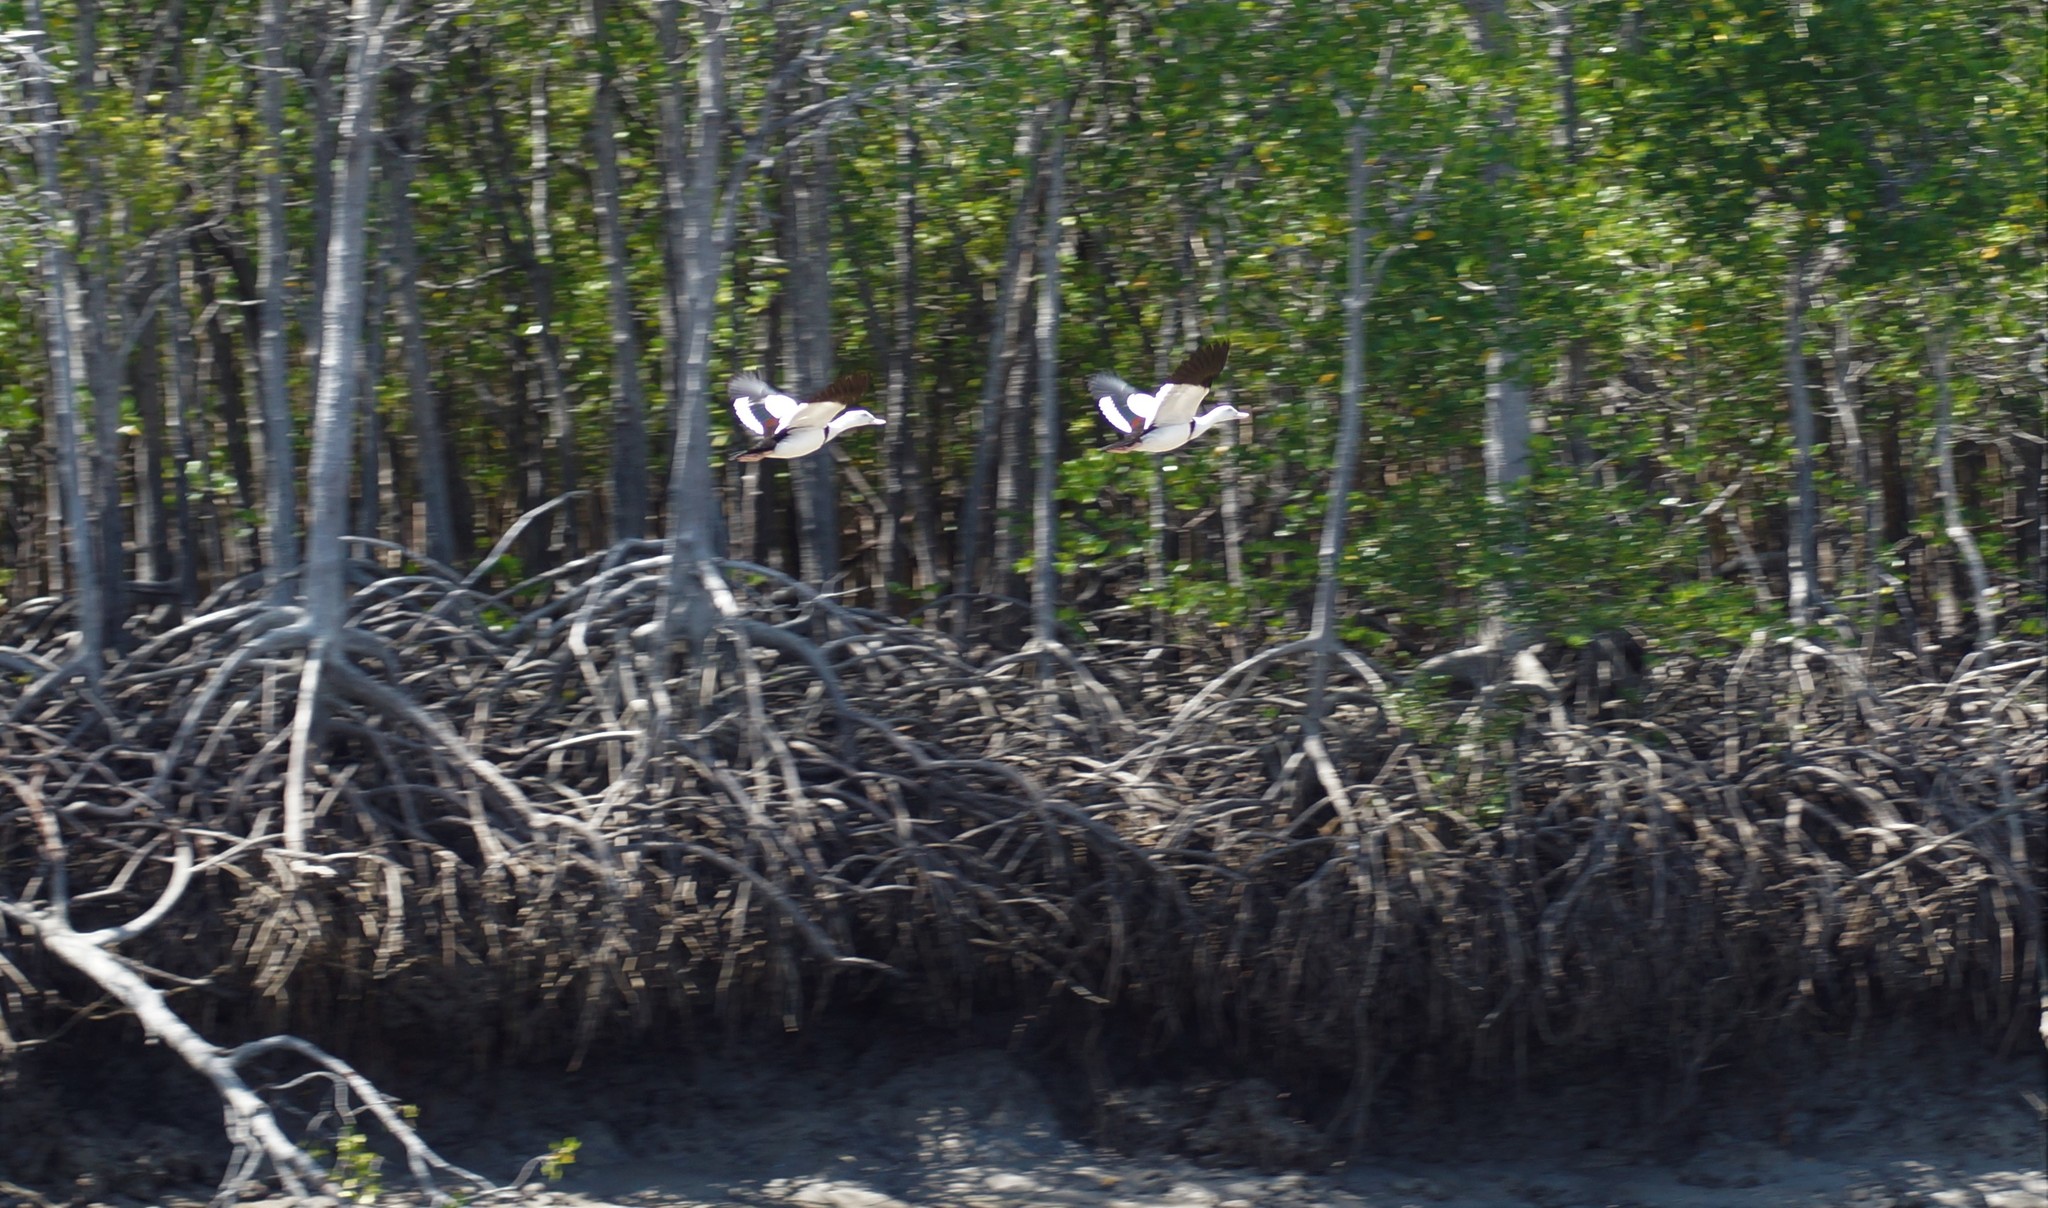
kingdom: Animalia
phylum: Chordata
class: Aves
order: Anseriformes
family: Anatidae
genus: Radjah
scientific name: Radjah radjah
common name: Radjah shelduck
